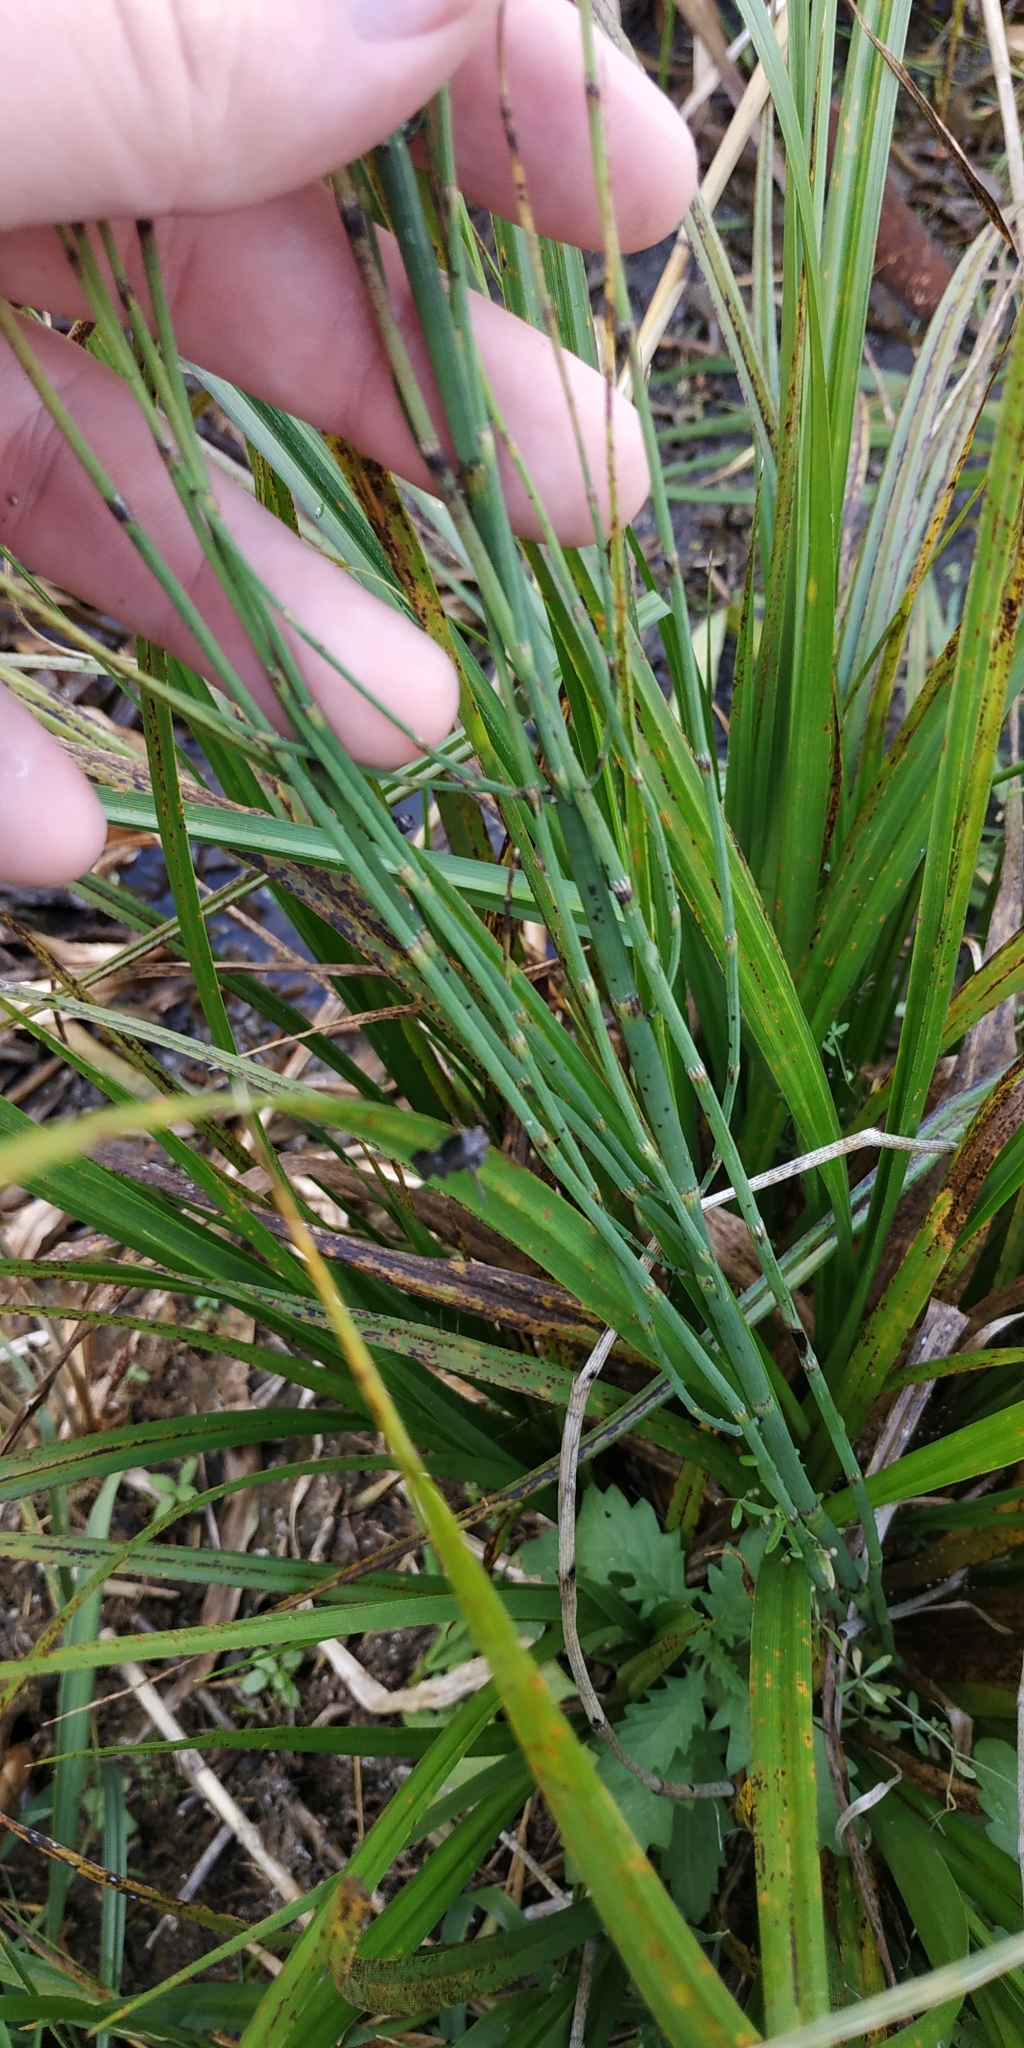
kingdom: Plantae
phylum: Tracheophyta
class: Polypodiopsida
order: Equisetales
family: Equisetaceae
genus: Equisetum
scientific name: Equisetum fluviatile
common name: Water horsetail
